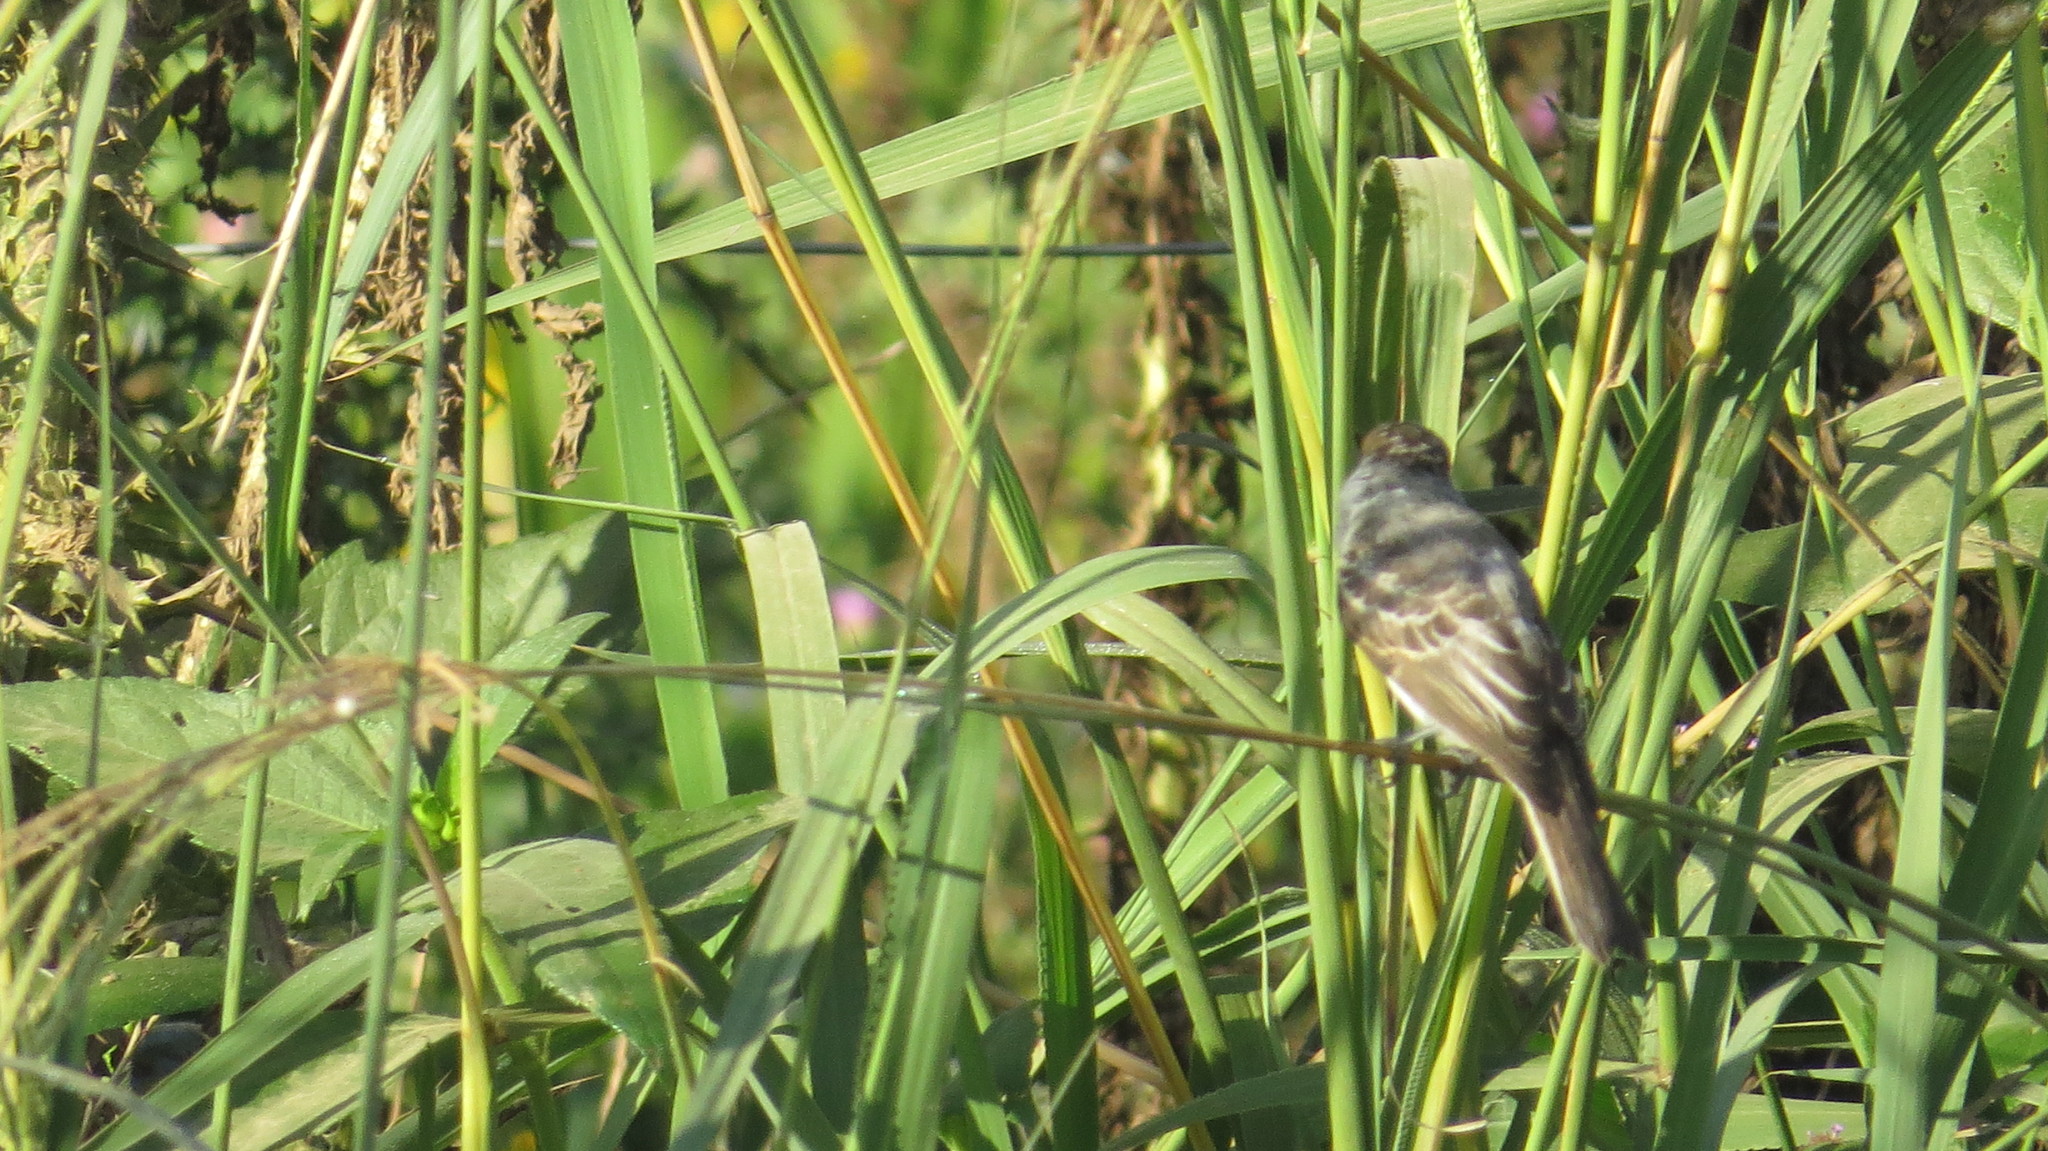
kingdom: Animalia
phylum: Chordata
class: Aves
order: Passeriformes
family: Cotingidae
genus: Xenopsaris
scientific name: Xenopsaris albinucha
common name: White-naped xenopsaris
